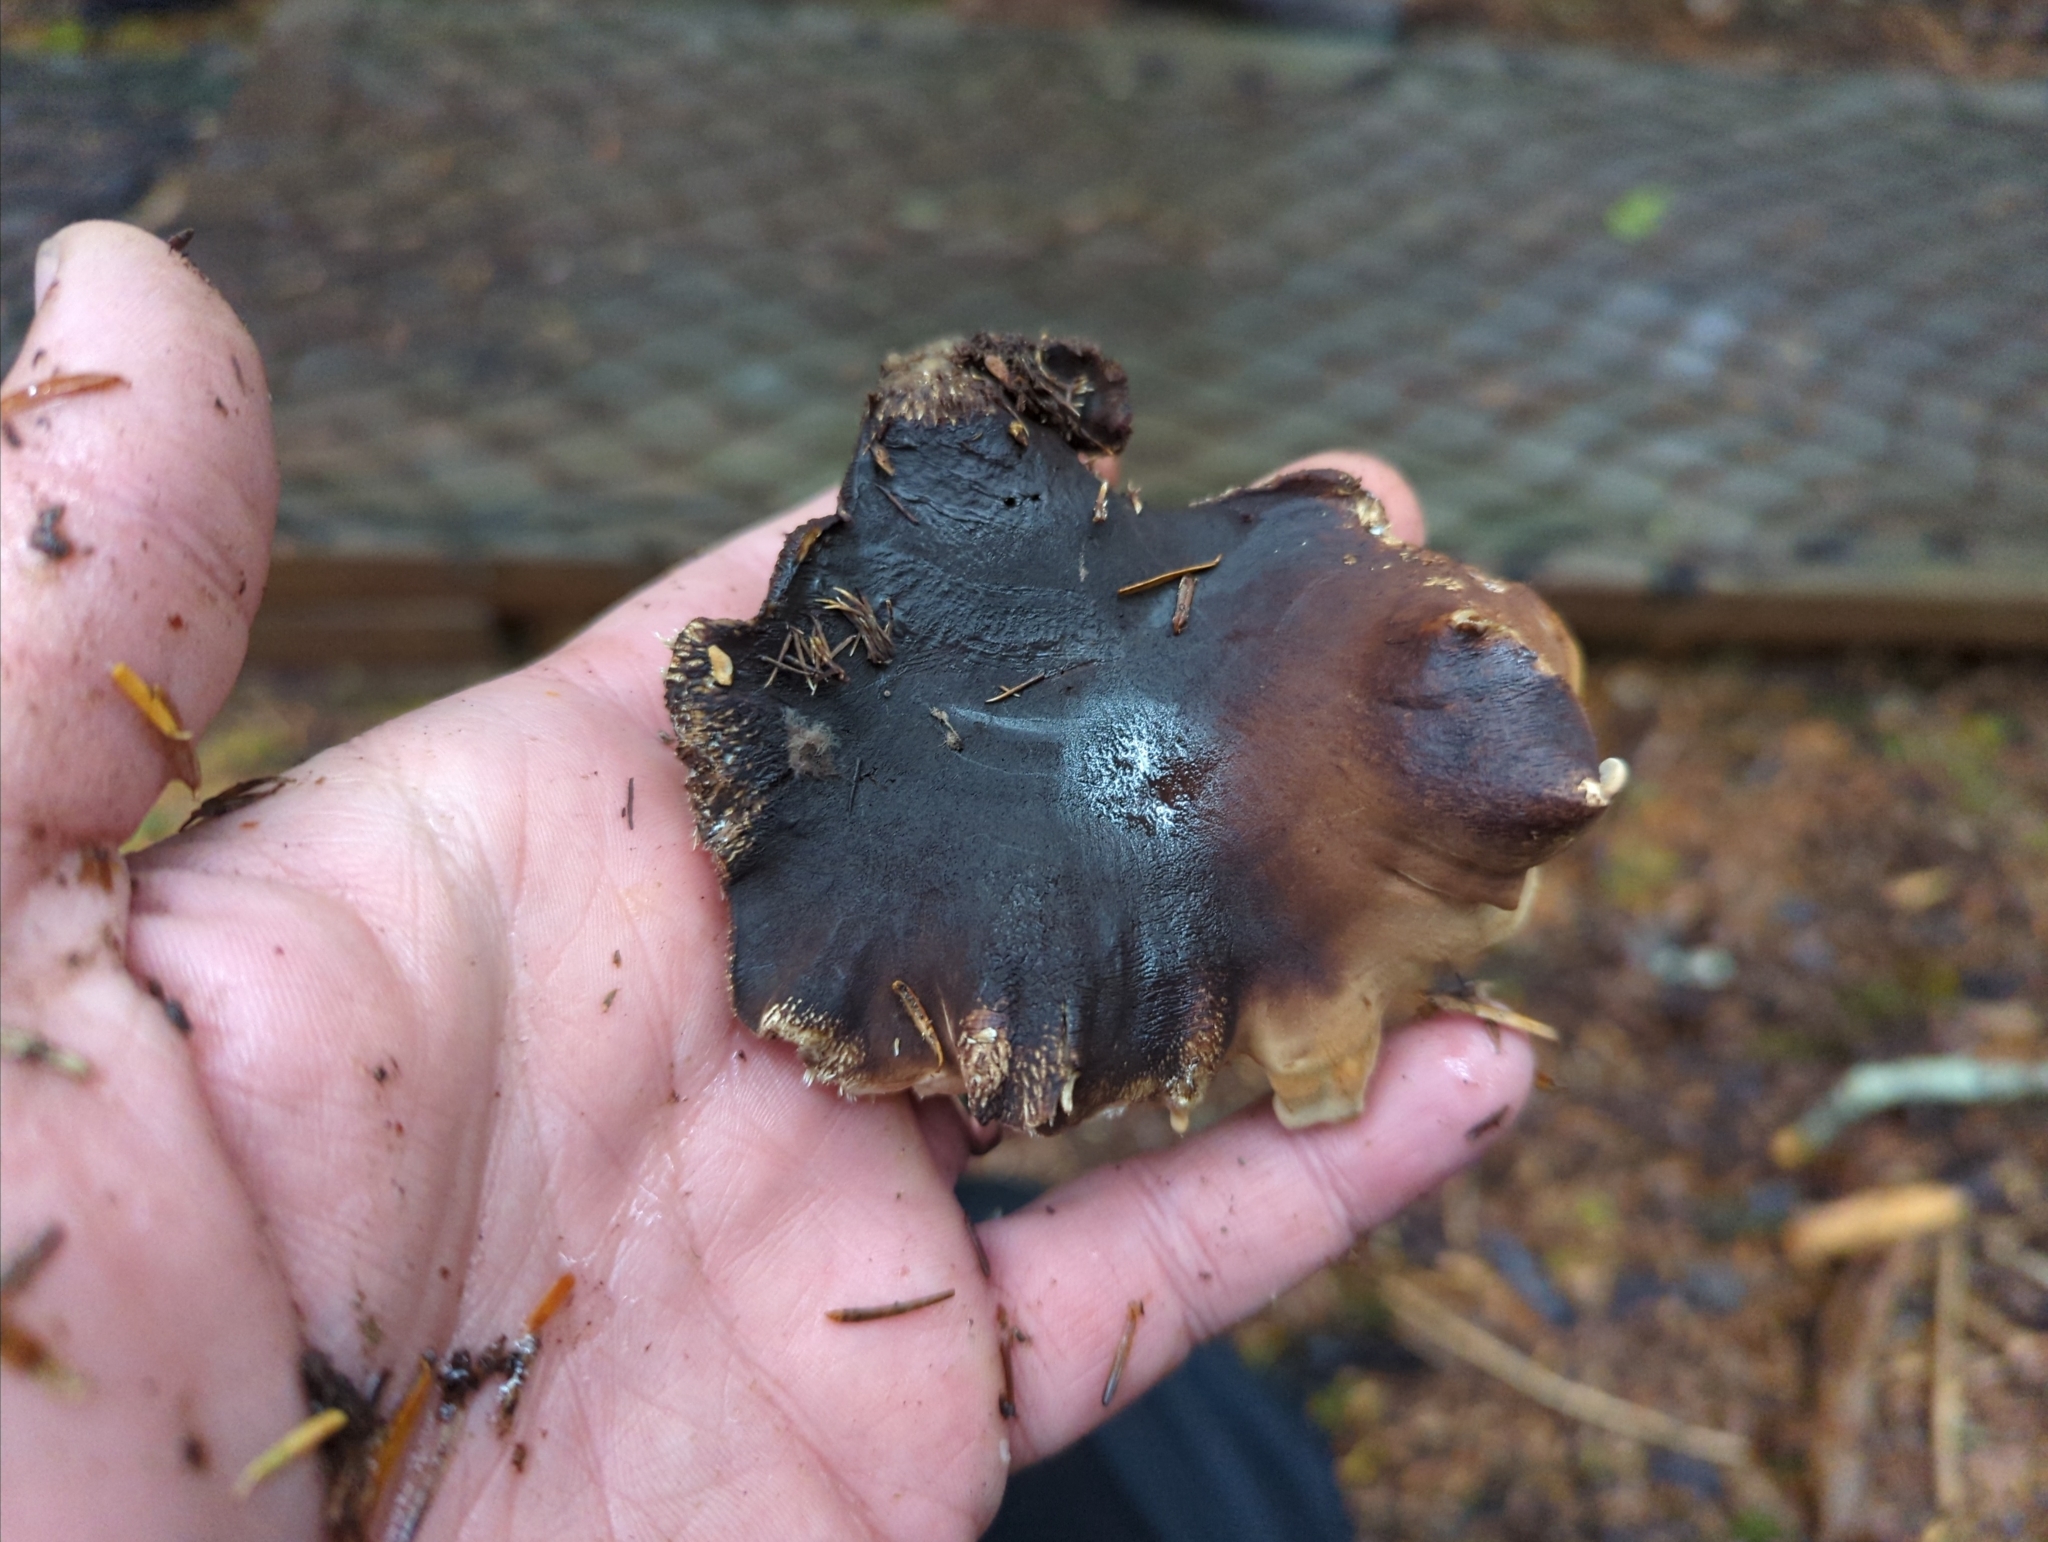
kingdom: Fungi
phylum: Basidiomycota
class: Agaricomycetes
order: Thelephorales
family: Bankeraceae
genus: Sarcodon
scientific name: Sarcodon stereosarcinon
